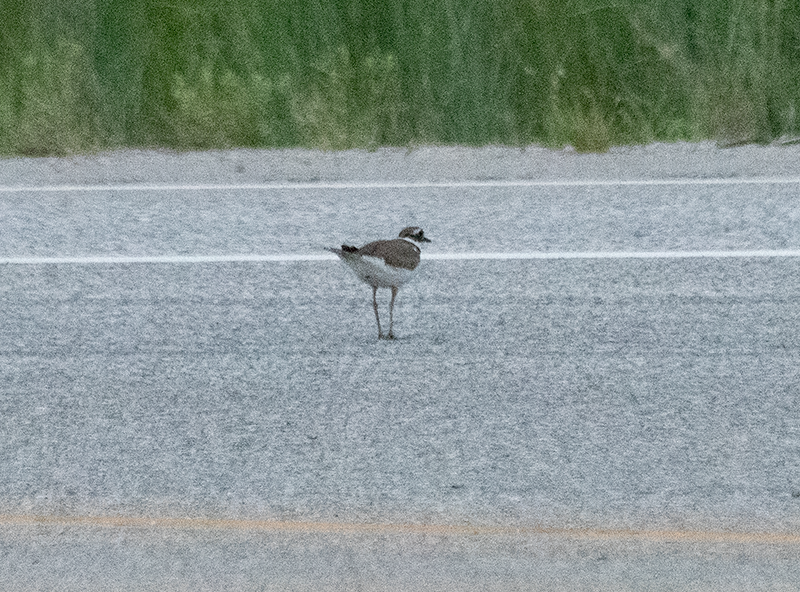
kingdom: Animalia
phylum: Chordata
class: Aves
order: Charadriiformes
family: Charadriidae
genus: Charadrius
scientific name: Charadrius vociferus
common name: Killdeer
